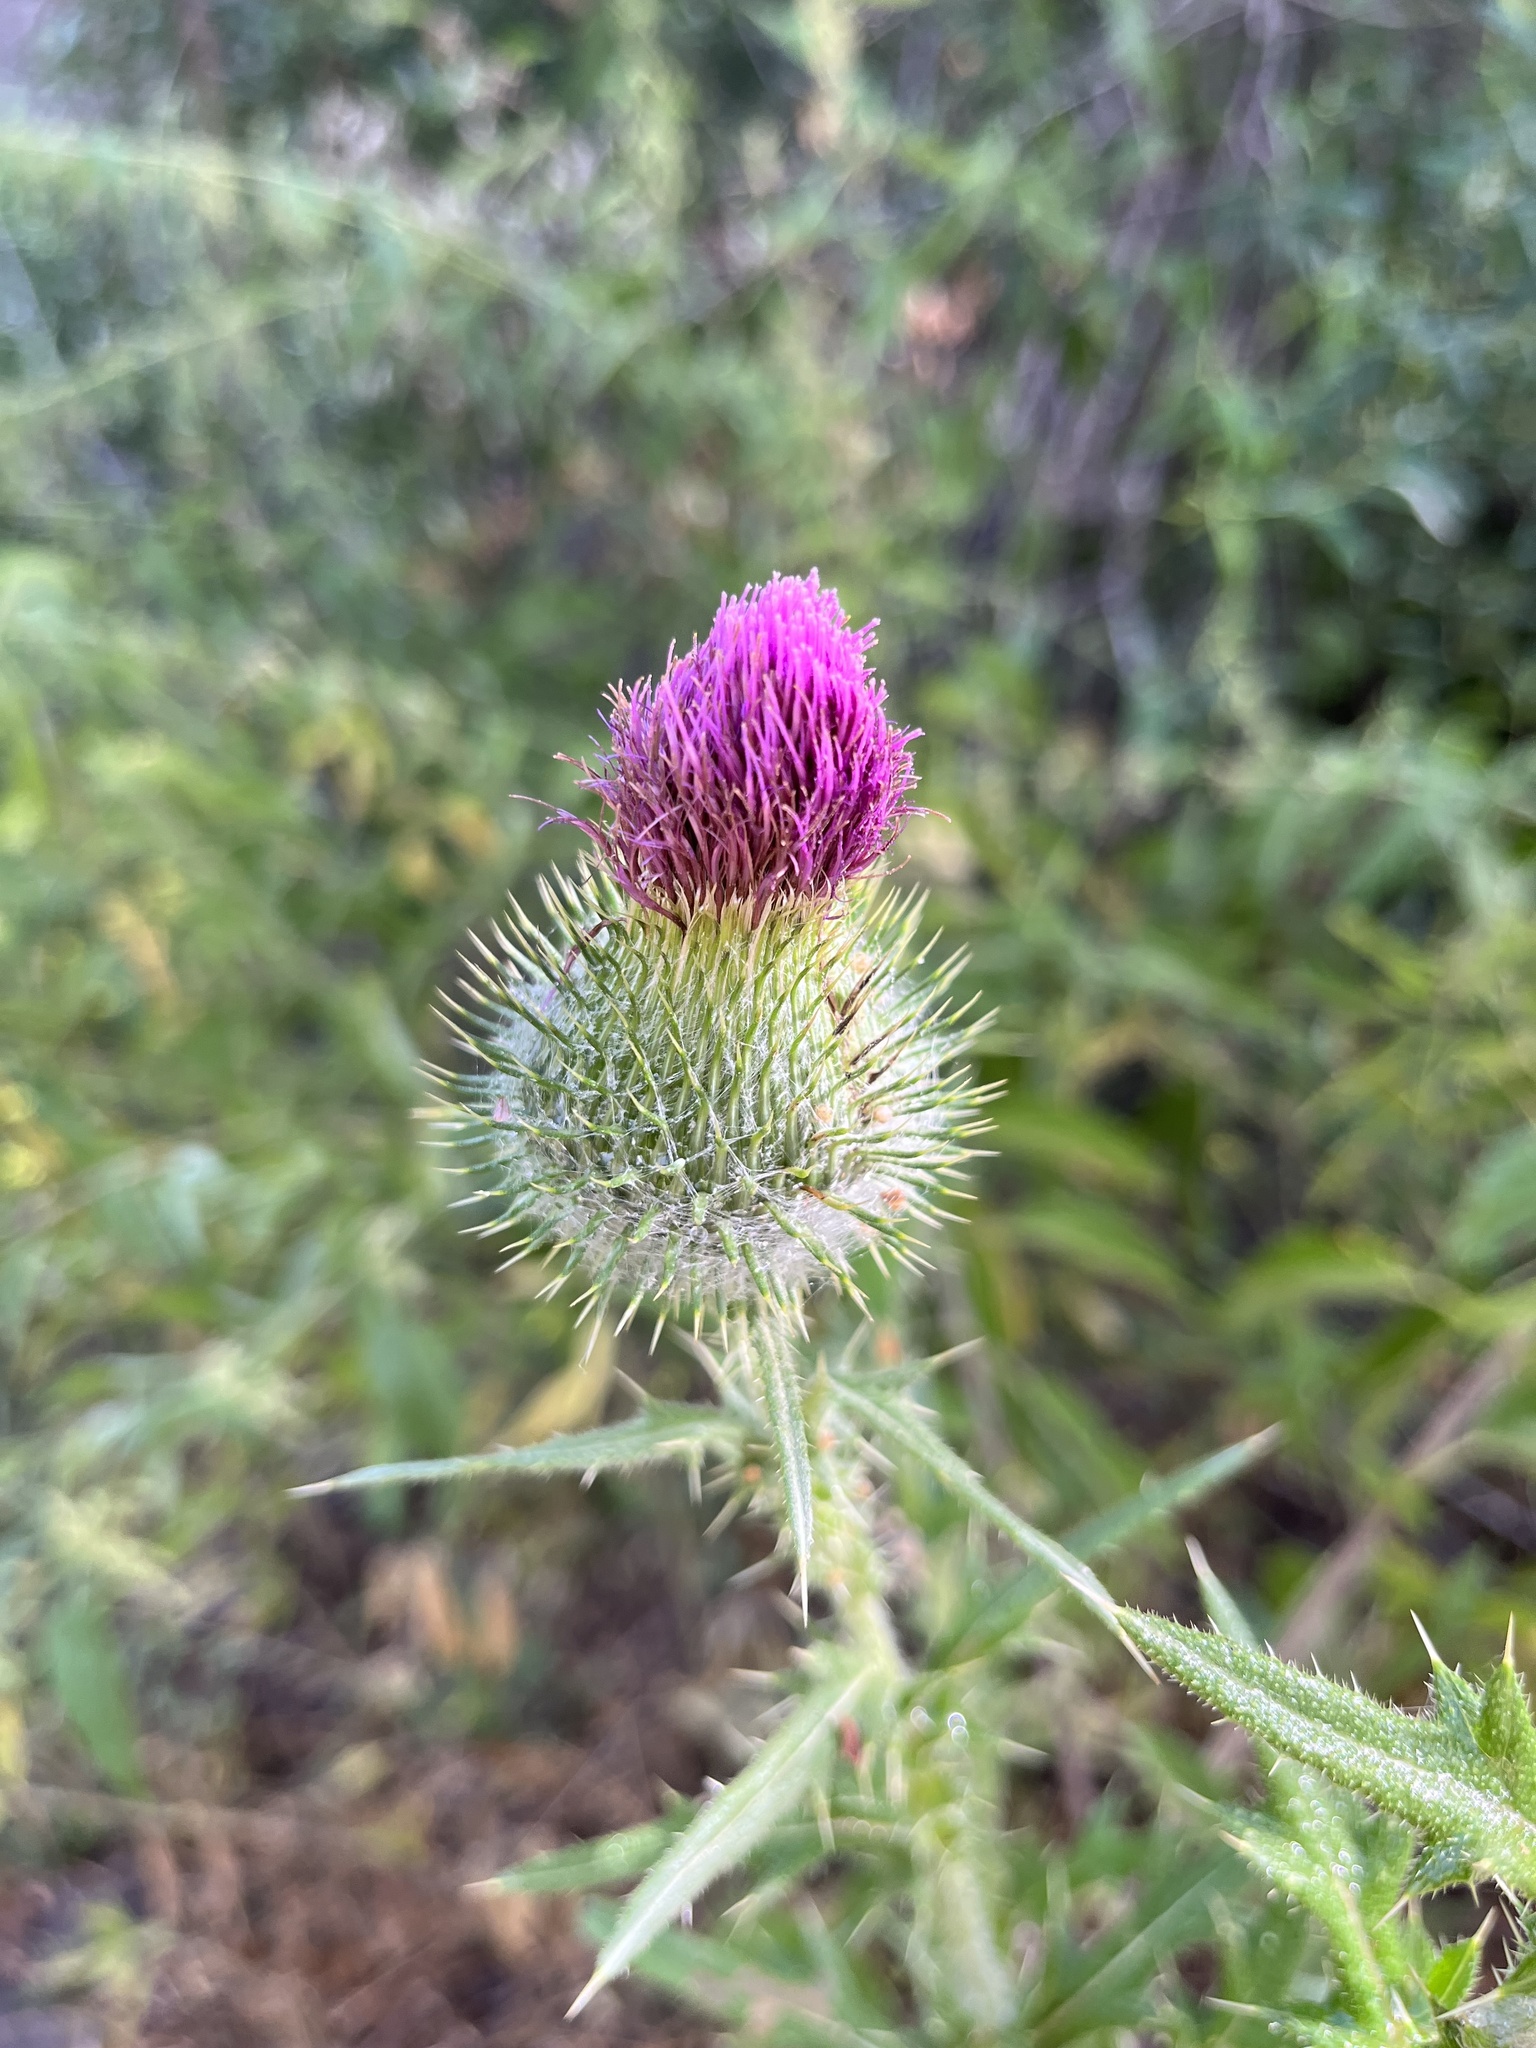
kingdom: Plantae
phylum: Tracheophyta
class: Magnoliopsida
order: Asterales
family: Asteraceae
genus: Cirsium
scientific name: Cirsium vulgare
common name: Bull thistle
